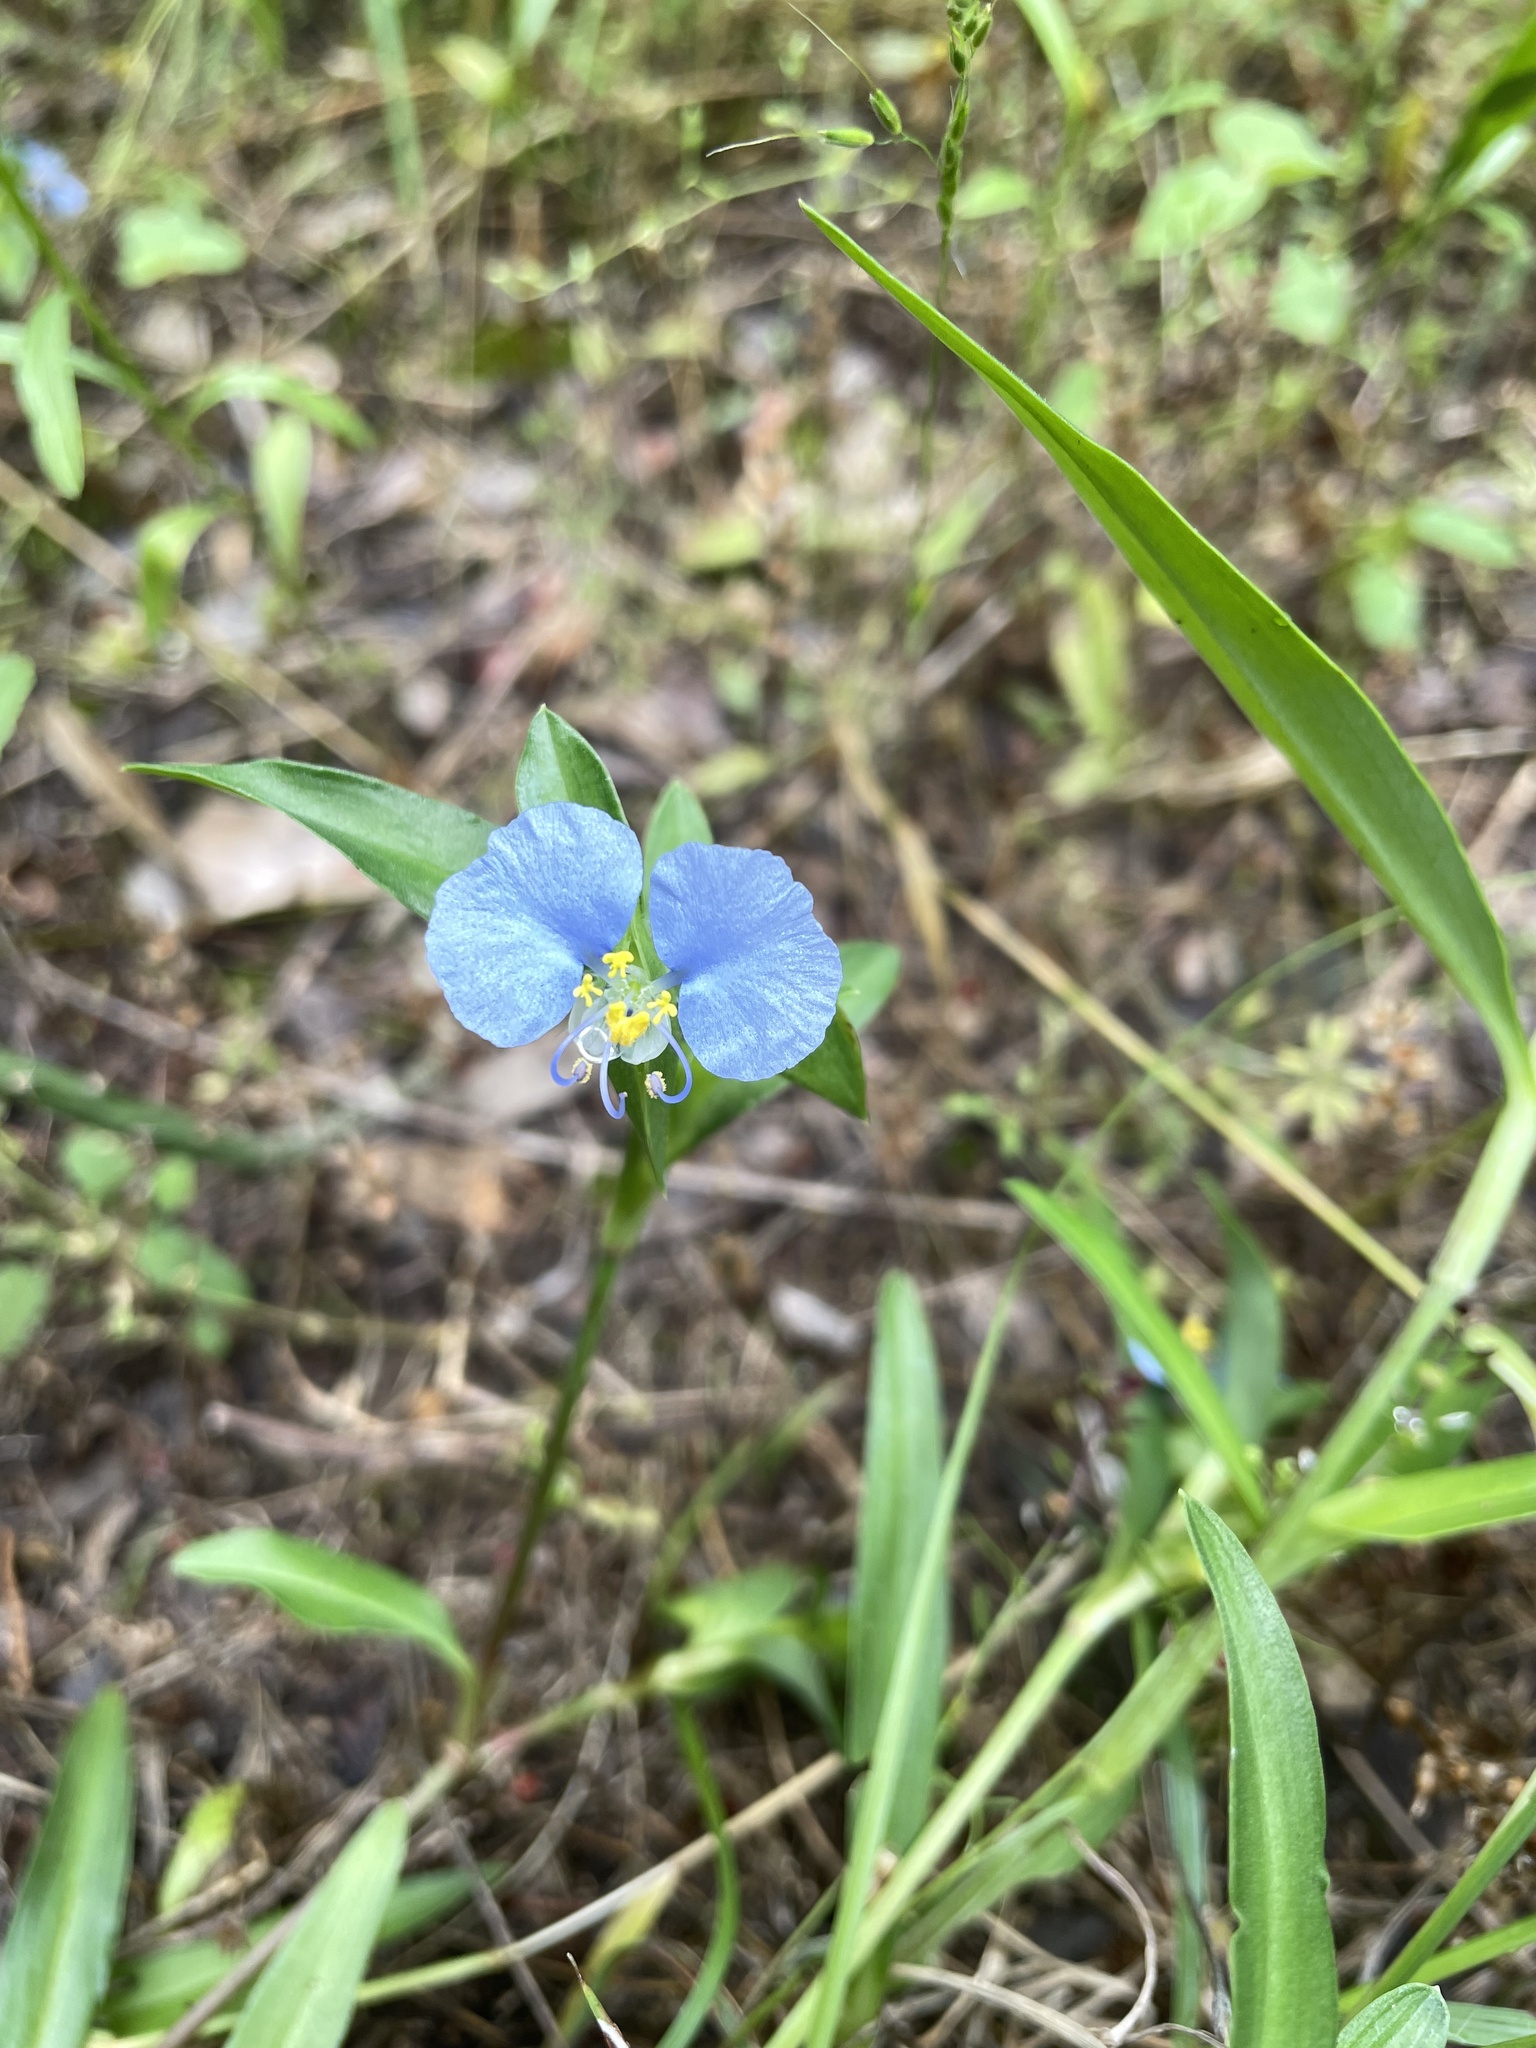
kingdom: Plantae
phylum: Tracheophyta
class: Liliopsida
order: Commelinales
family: Commelinaceae
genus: Commelina
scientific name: Commelina erecta
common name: Blousel blommetjie
